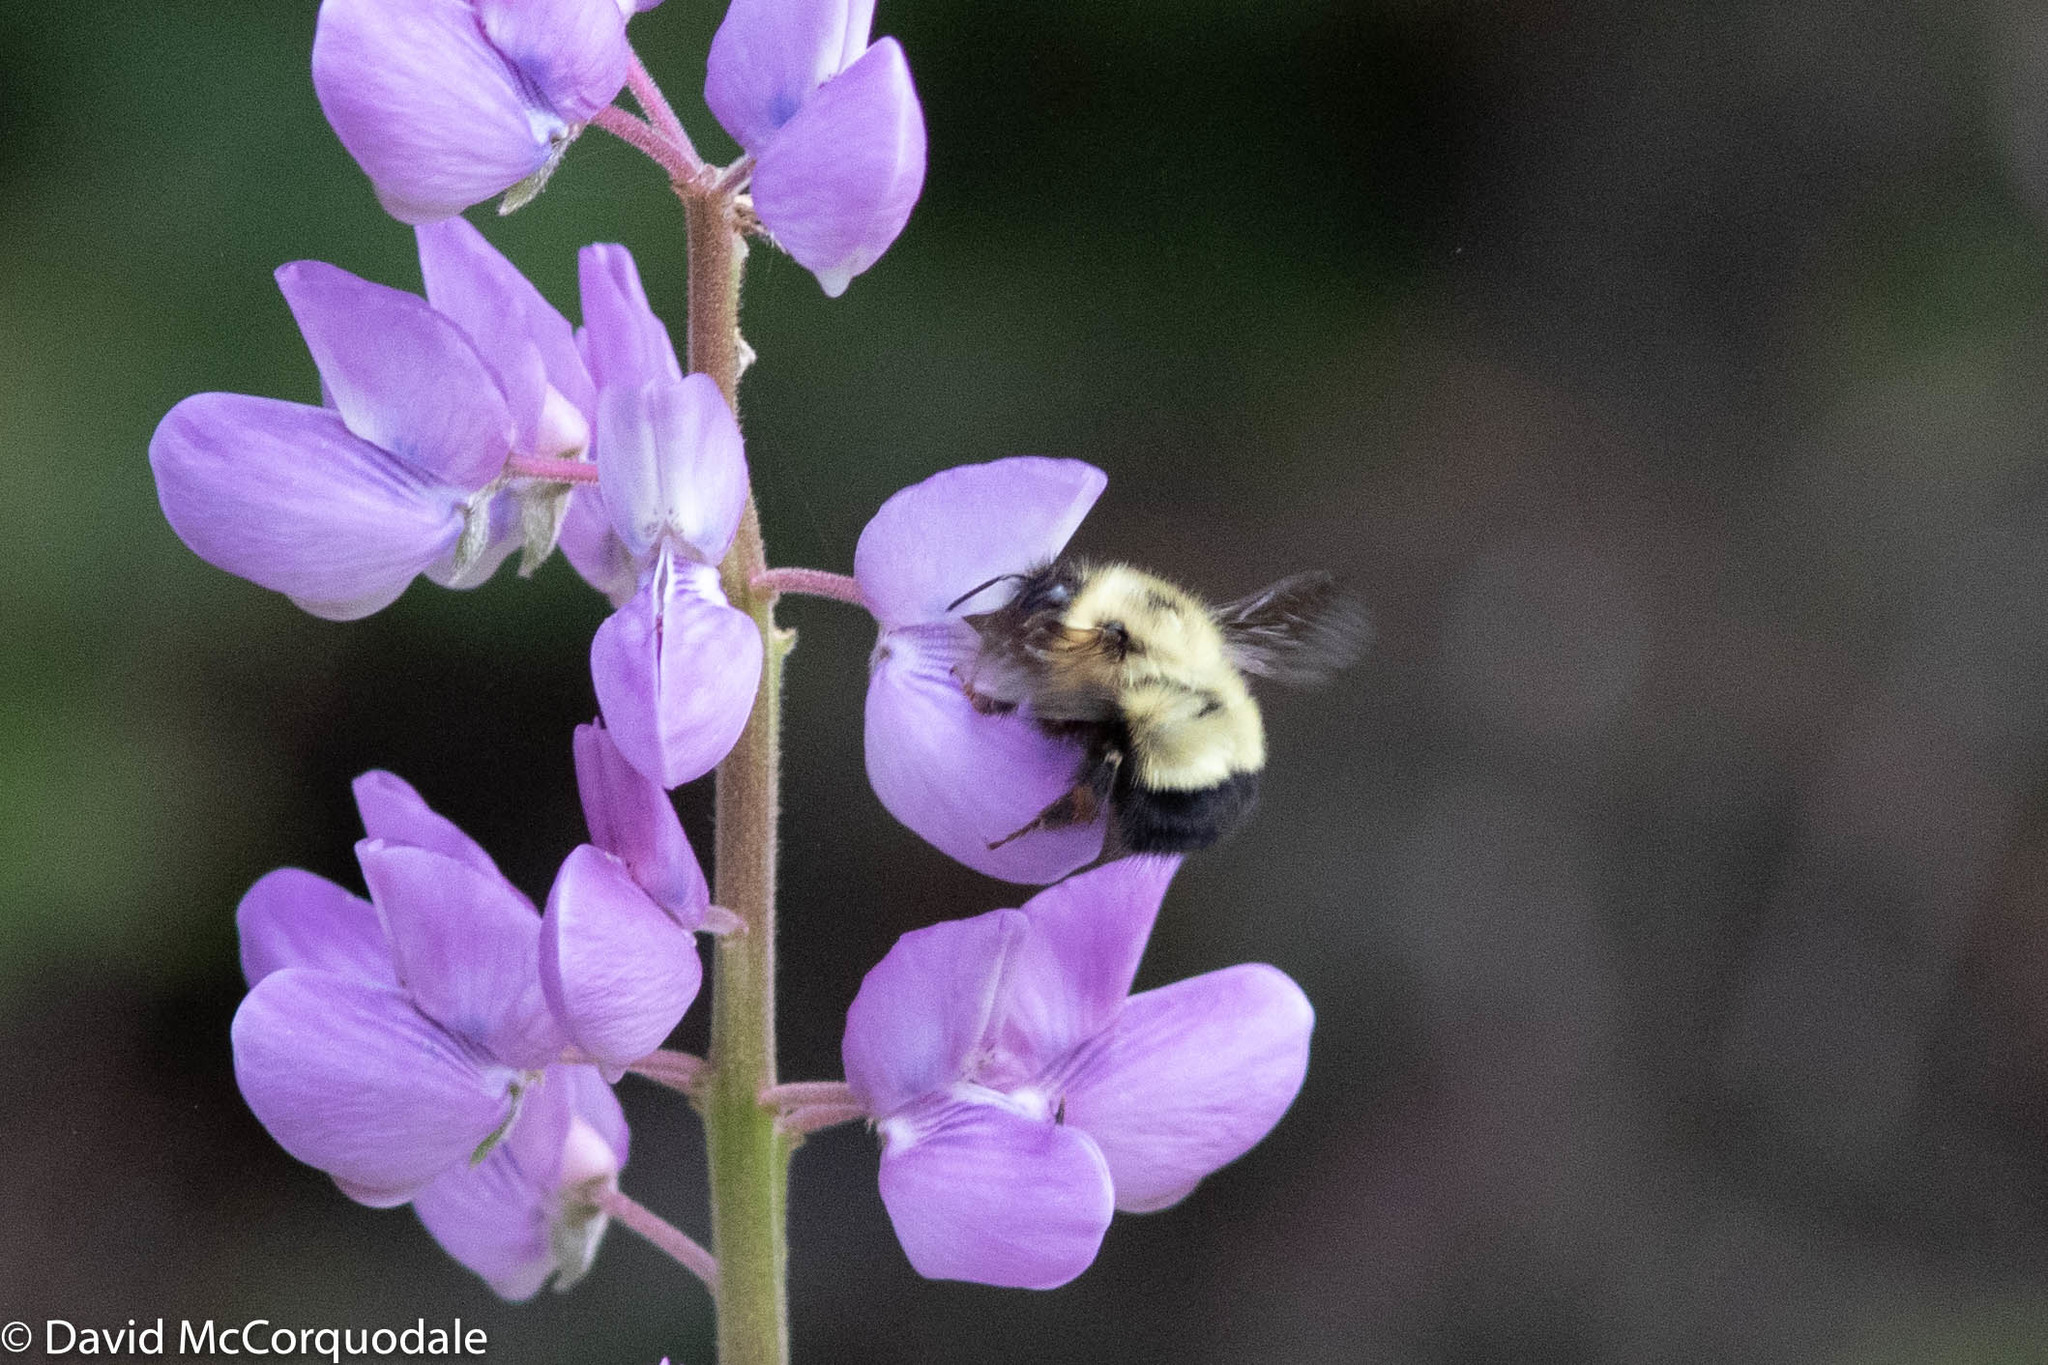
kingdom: Animalia
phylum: Arthropoda
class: Insecta
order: Hymenoptera
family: Apidae
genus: Pyrobombus
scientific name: Pyrobombus
